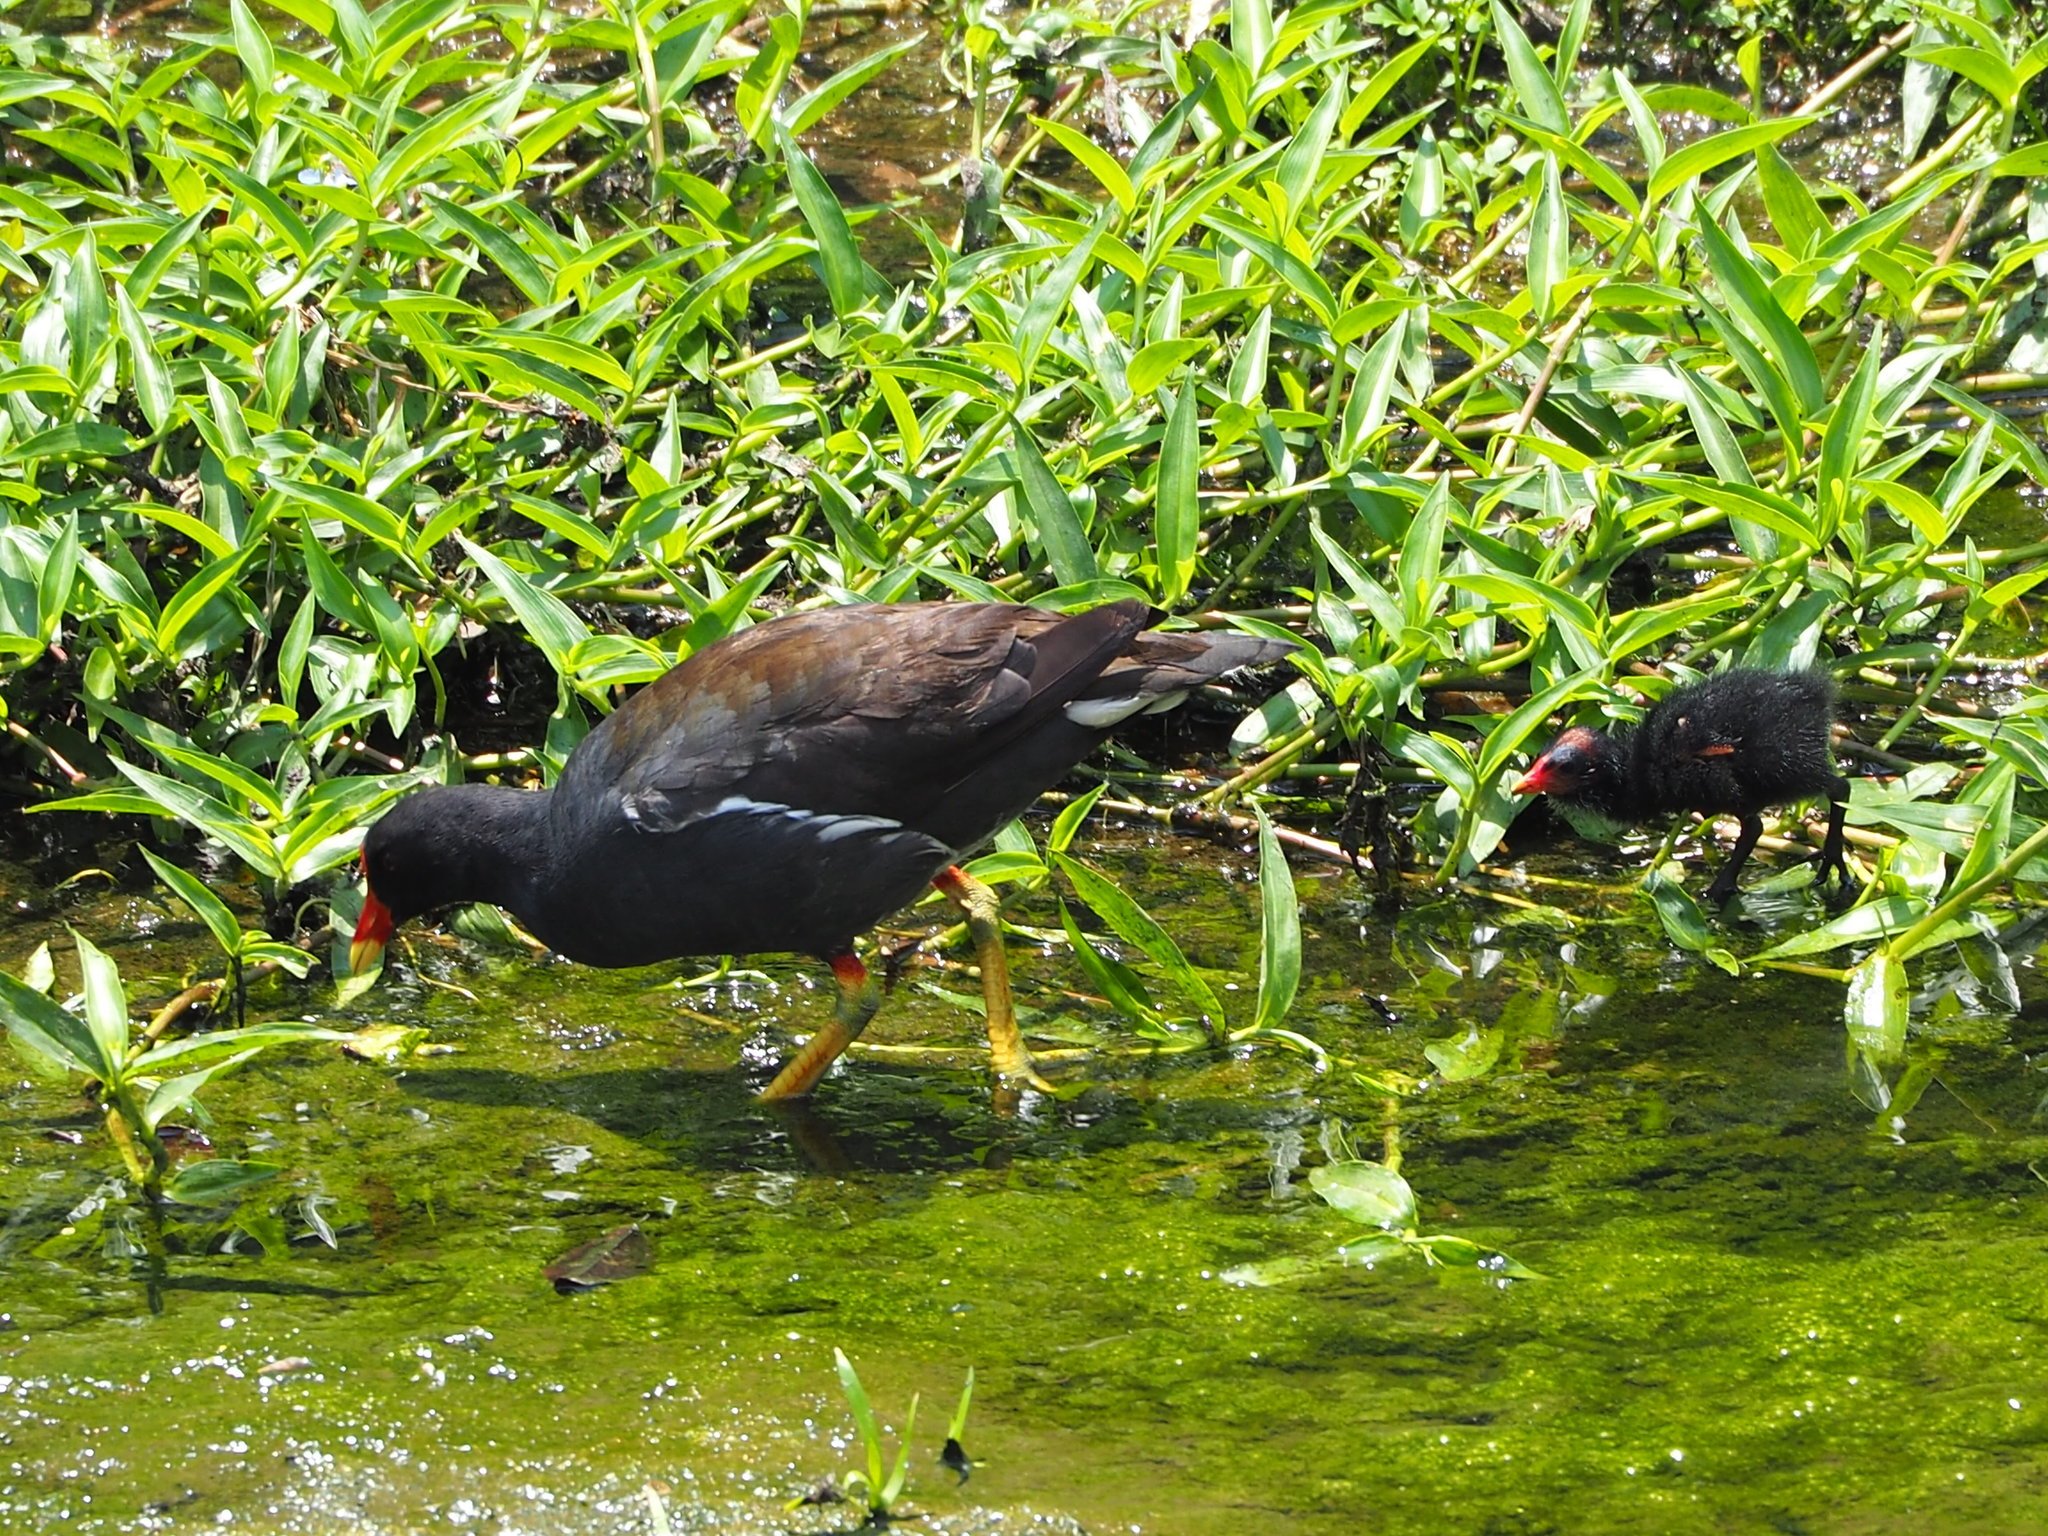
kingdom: Animalia
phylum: Chordata
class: Aves
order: Gruiformes
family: Rallidae
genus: Gallinula
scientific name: Gallinula chloropus
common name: Common moorhen
